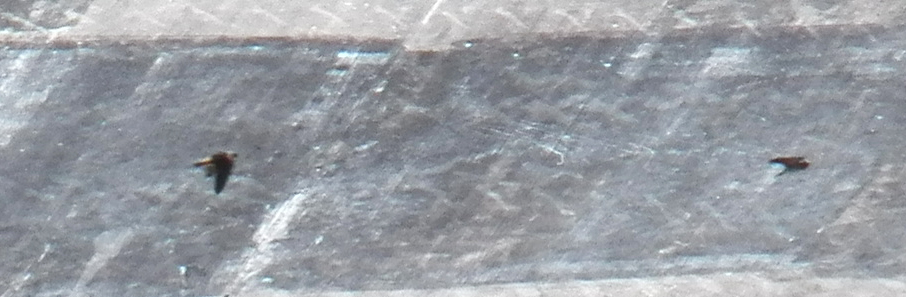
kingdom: Animalia
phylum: Chordata
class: Aves
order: Passeriformes
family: Hirundinidae
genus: Petrochelidon
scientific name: Petrochelidon pyrrhonota
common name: American cliff swallow
